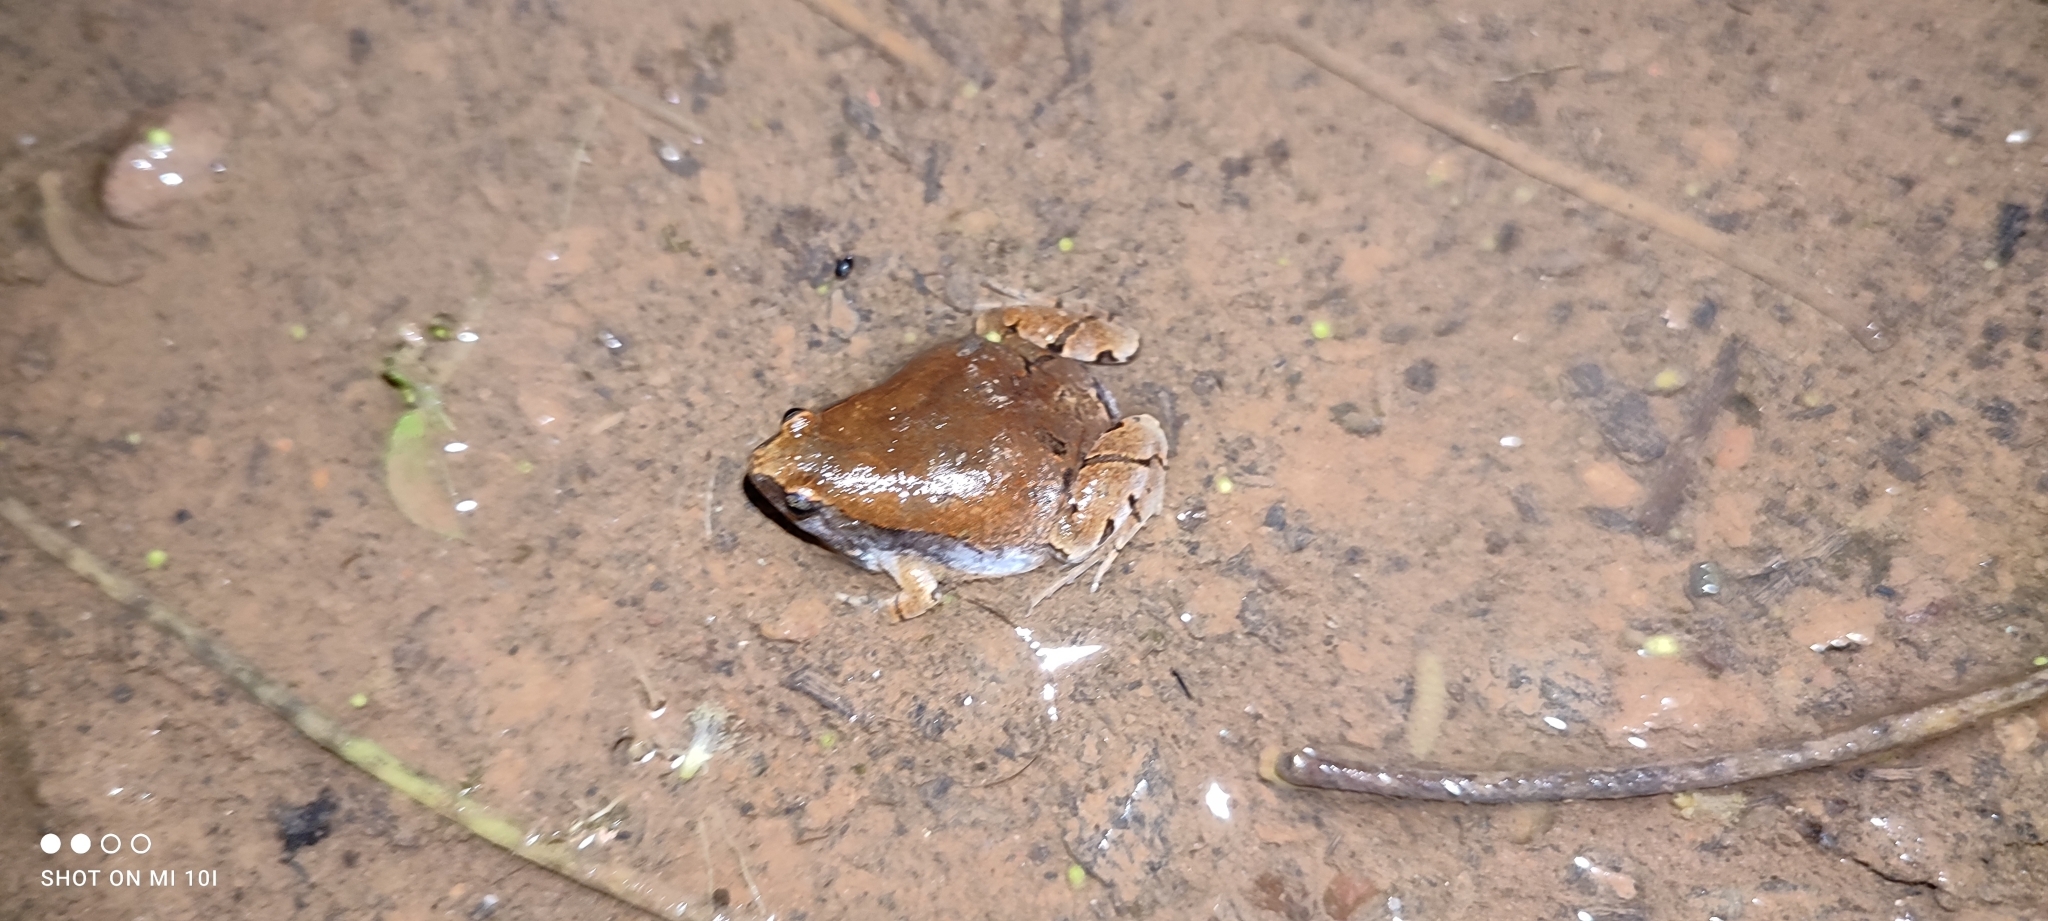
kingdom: Animalia
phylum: Chordata
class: Amphibia
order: Anura
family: Microhylidae
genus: Microhyla
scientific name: Microhyla ornata
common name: Ant frog
